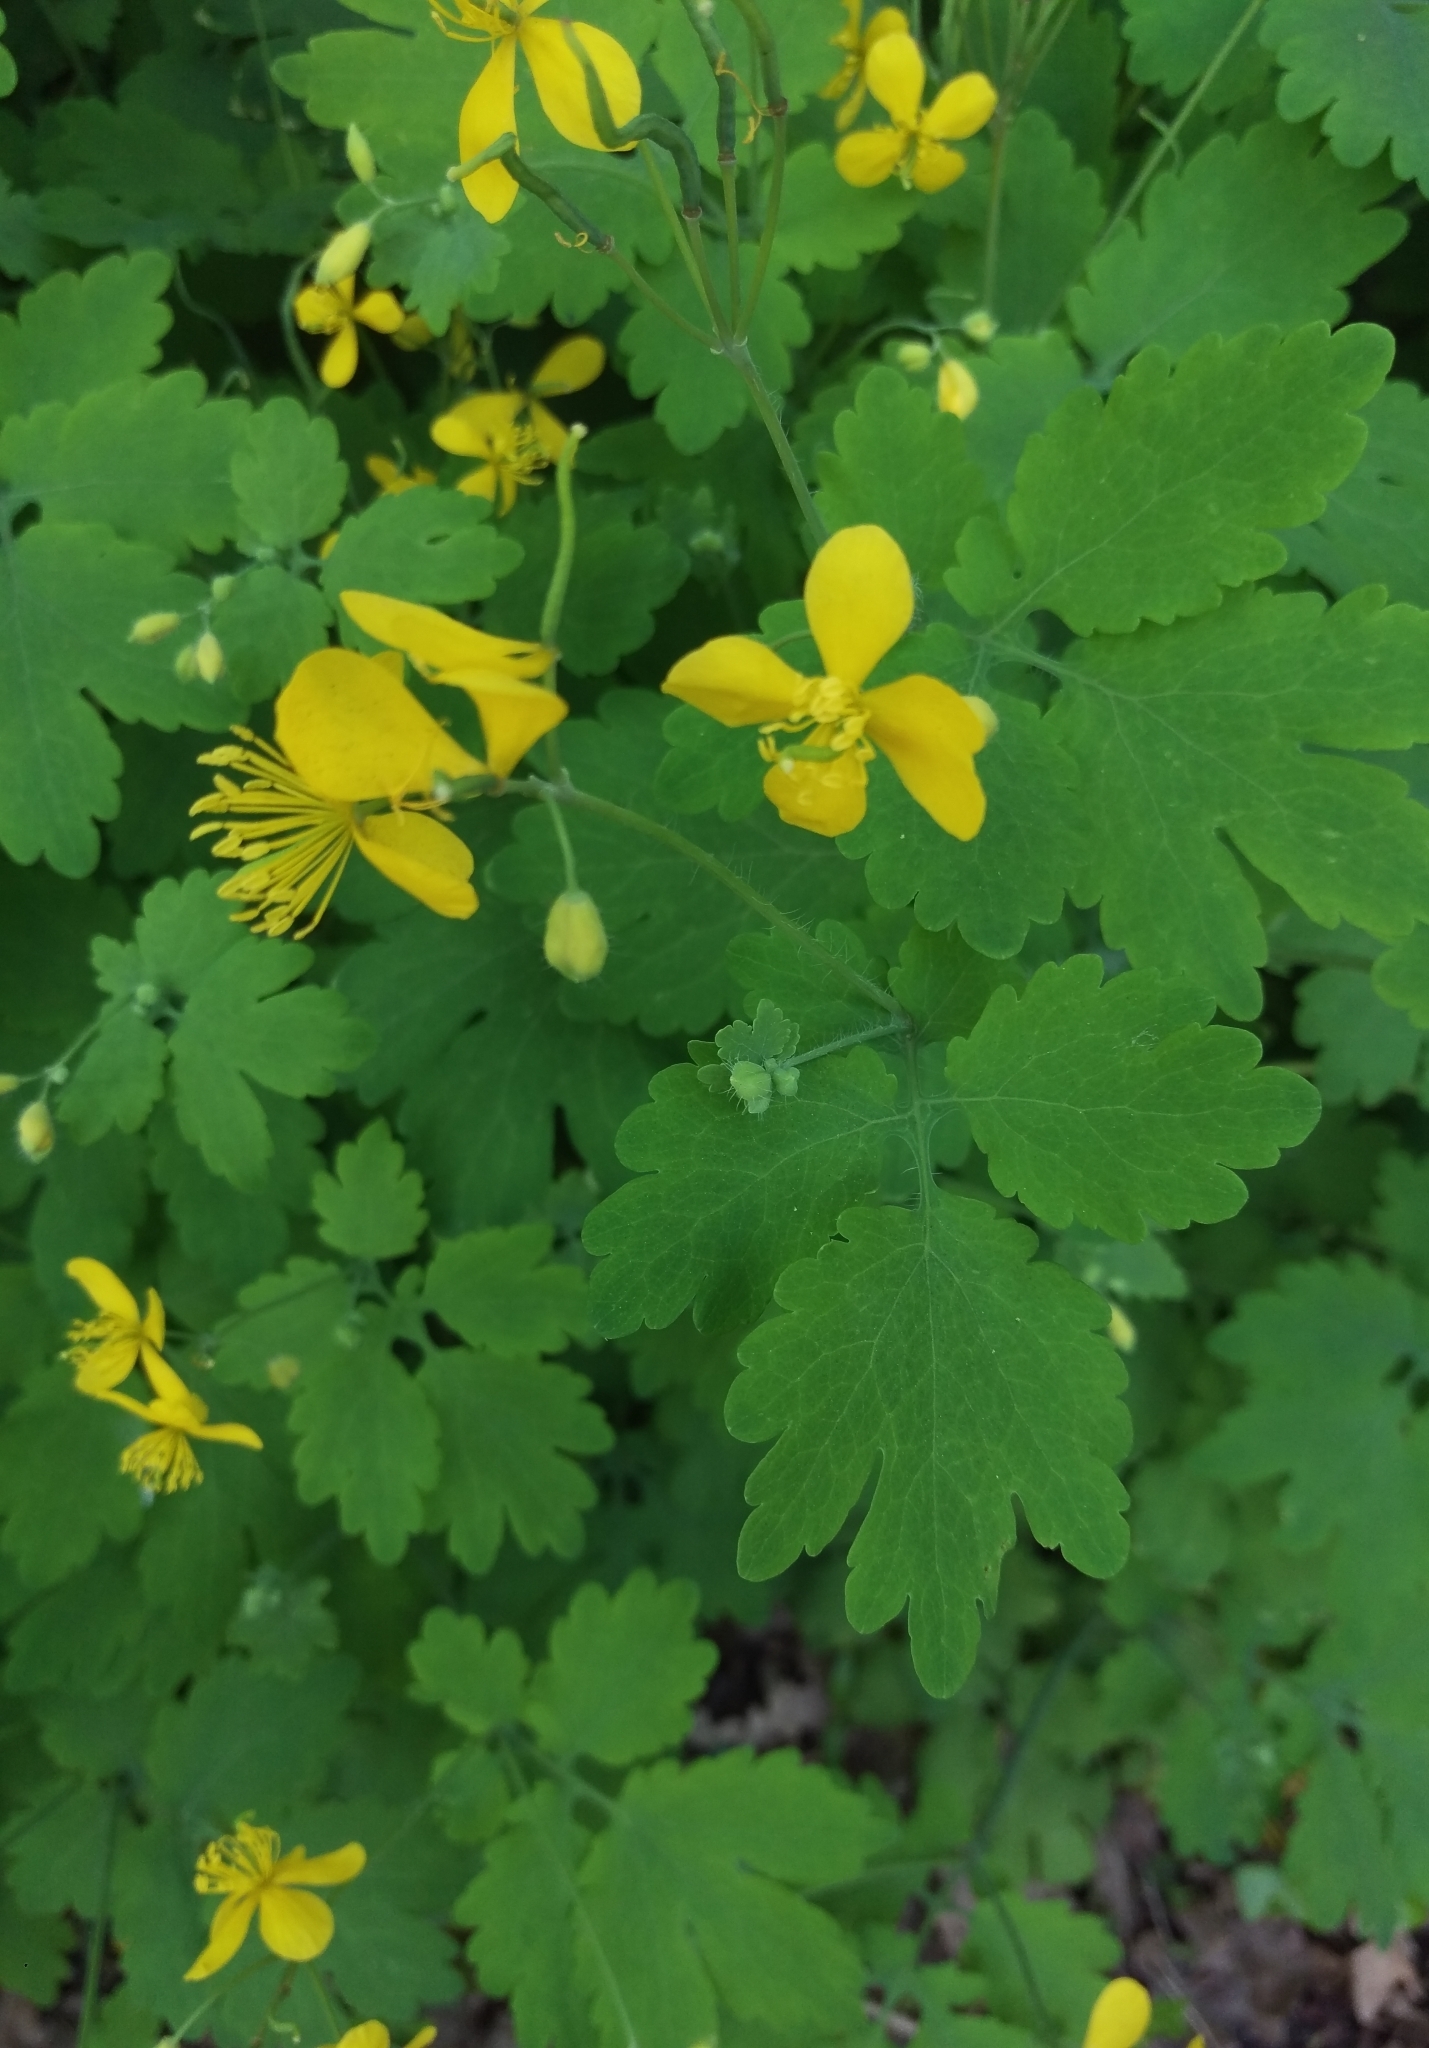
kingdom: Plantae
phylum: Tracheophyta
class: Magnoliopsida
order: Ranunculales
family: Papaveraceae
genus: Chelidonium
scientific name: Chelidonium majus
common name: Greater celandine
